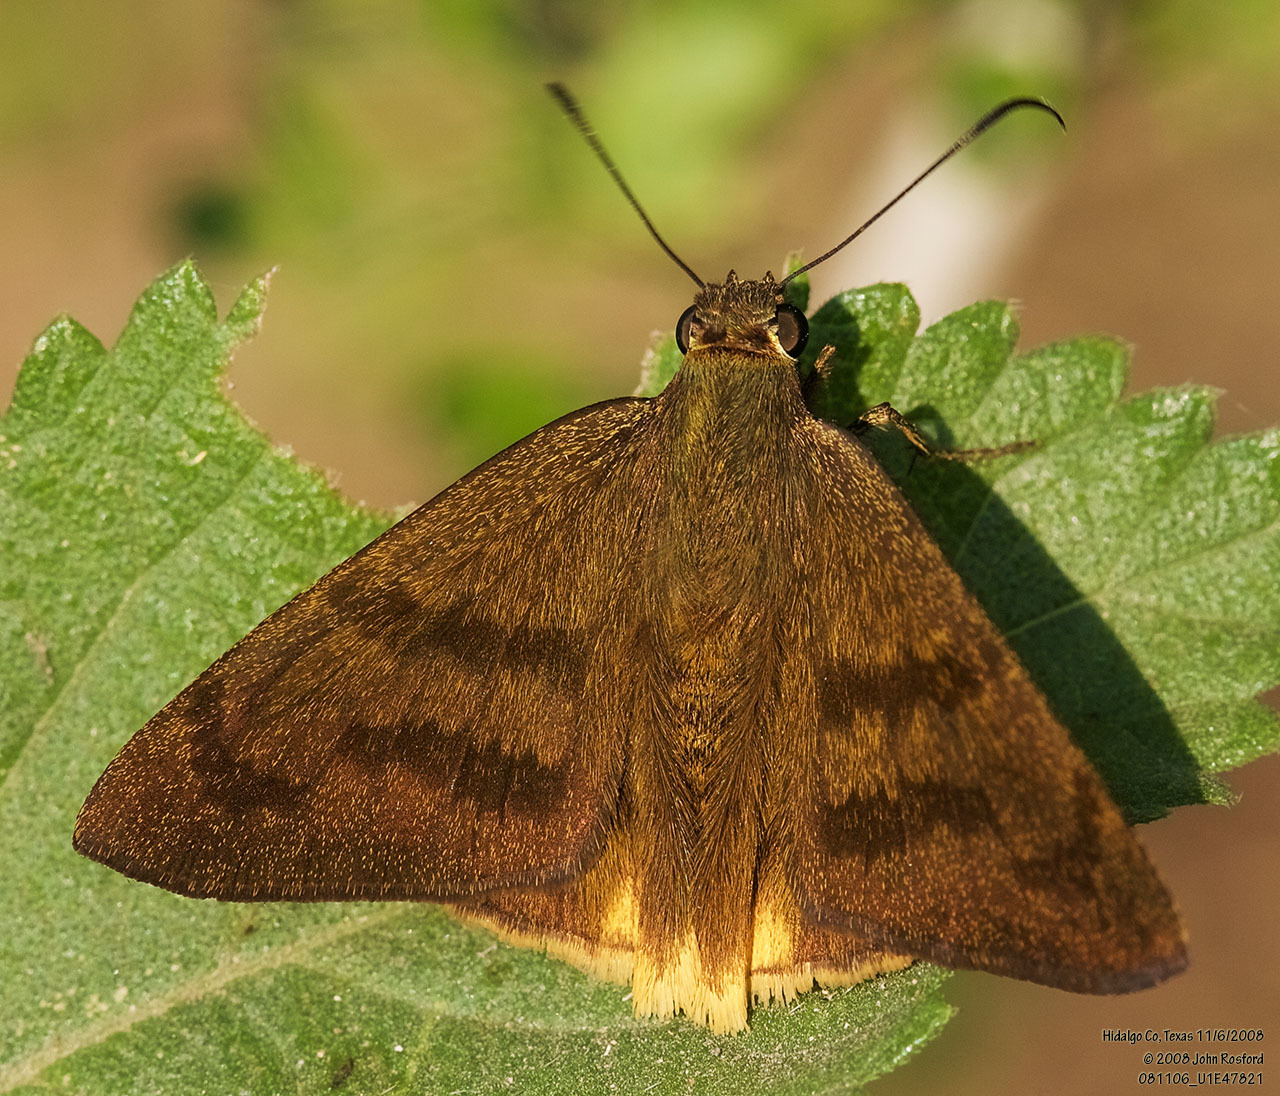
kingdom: Animalia
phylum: Arthropoda
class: Insecta
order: Lepidoptera
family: Hesperiidae
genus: Astraptes
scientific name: Astraptes anaphus
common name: Yellow-tipped flasher
